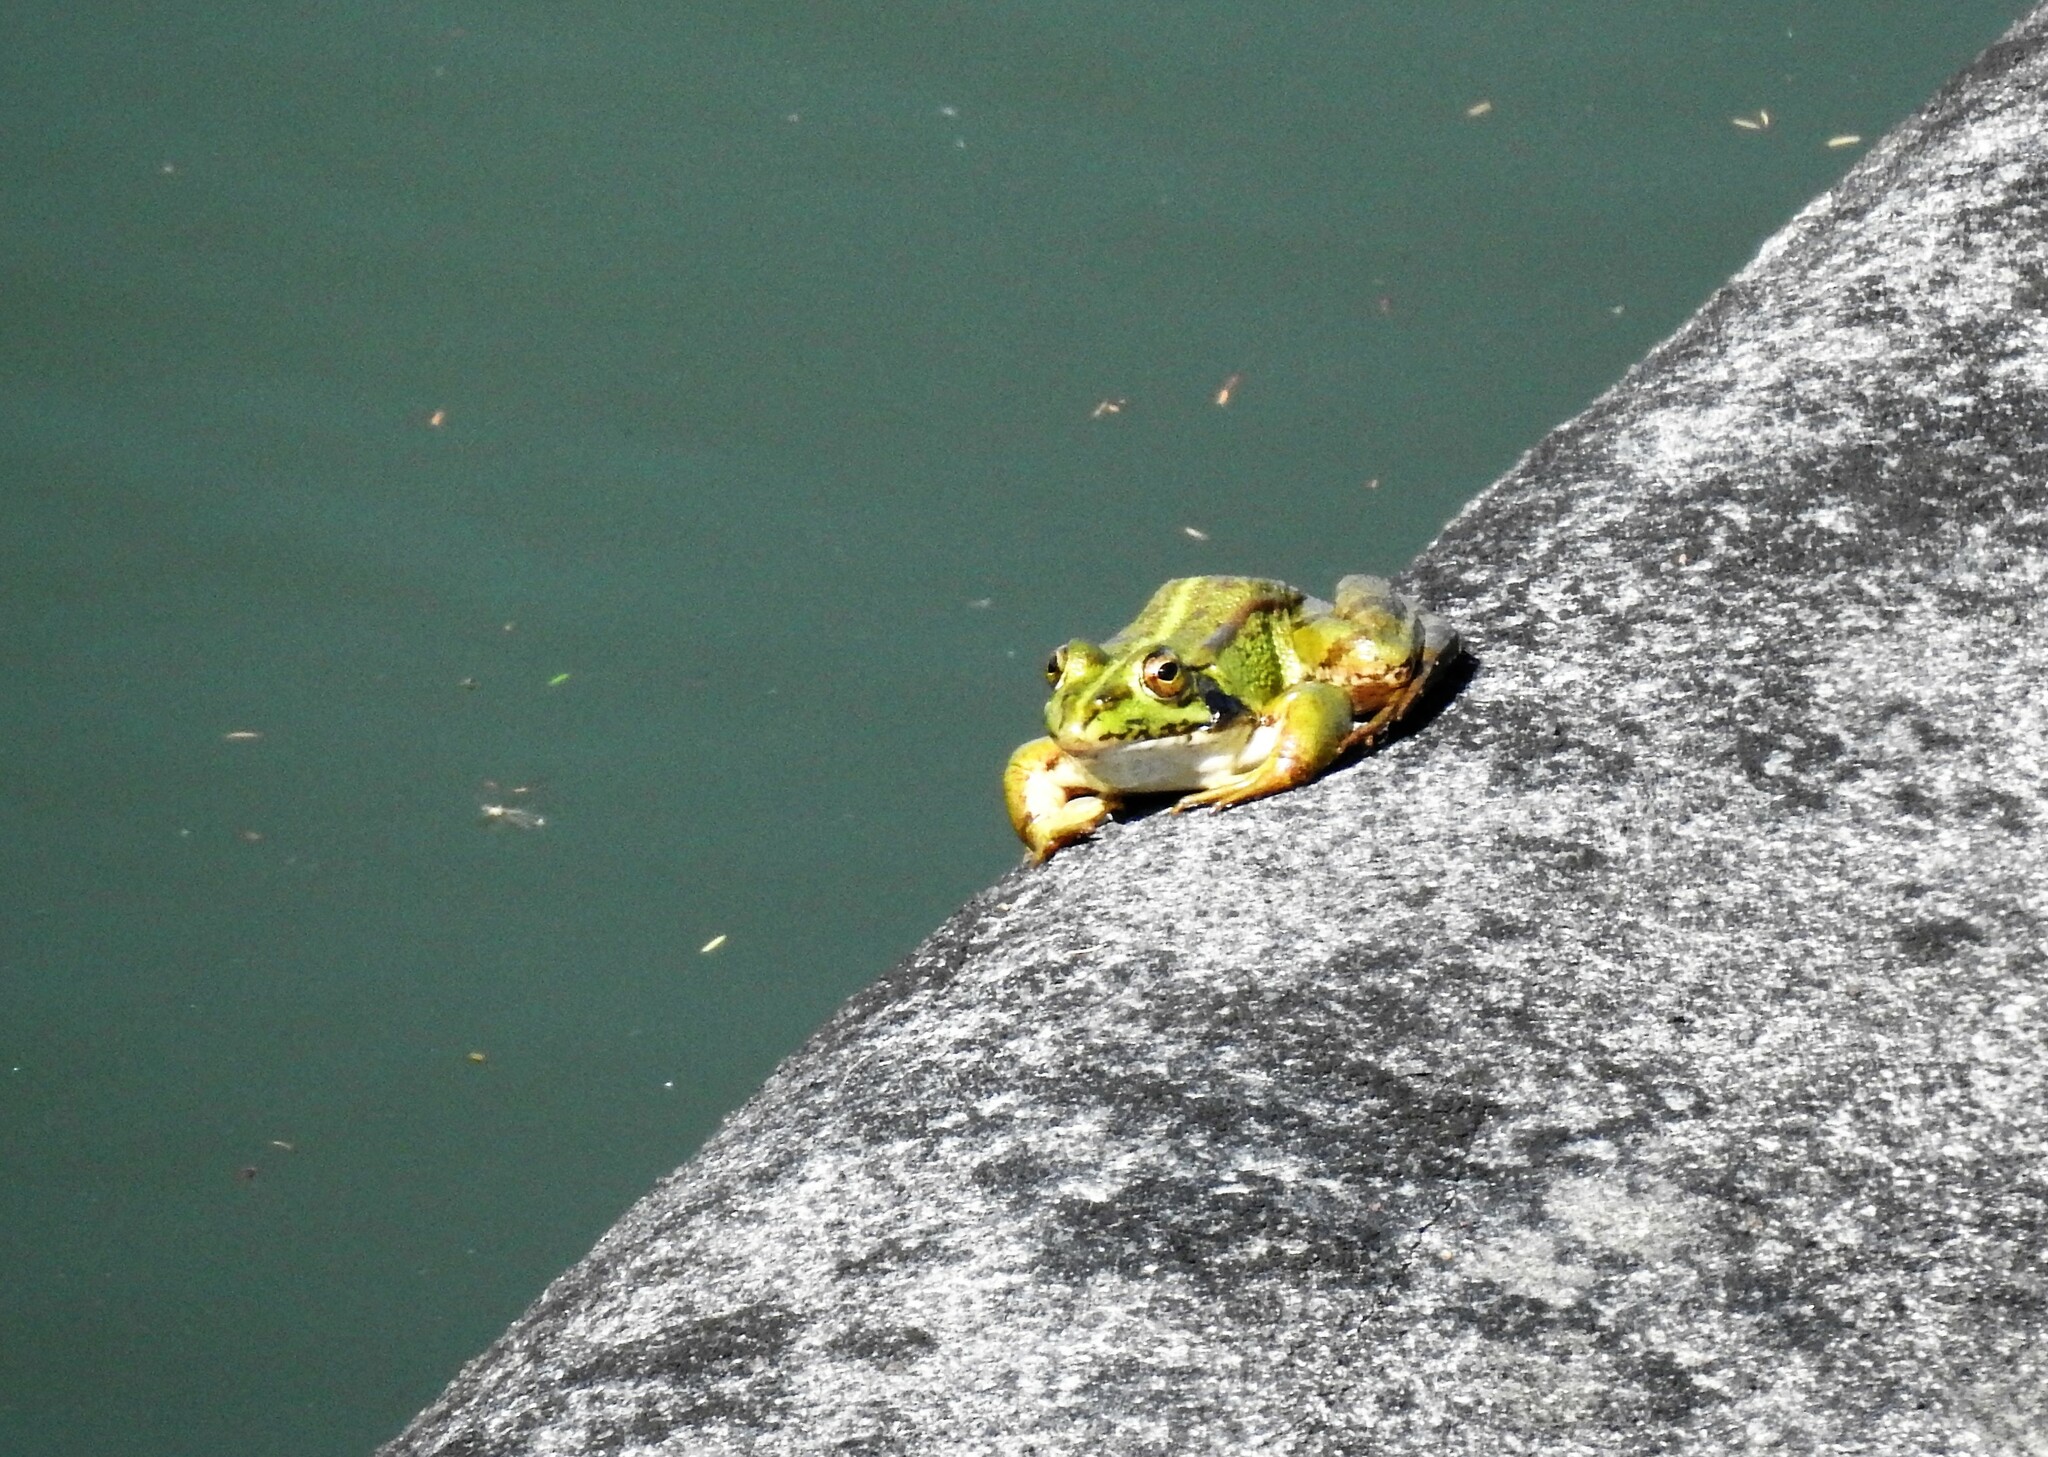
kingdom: Animalia
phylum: Chordata
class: Amphibia
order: Anura
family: Ranidae
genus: Pelophylax
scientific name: Pelophylax perezi
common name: Perez's frog
